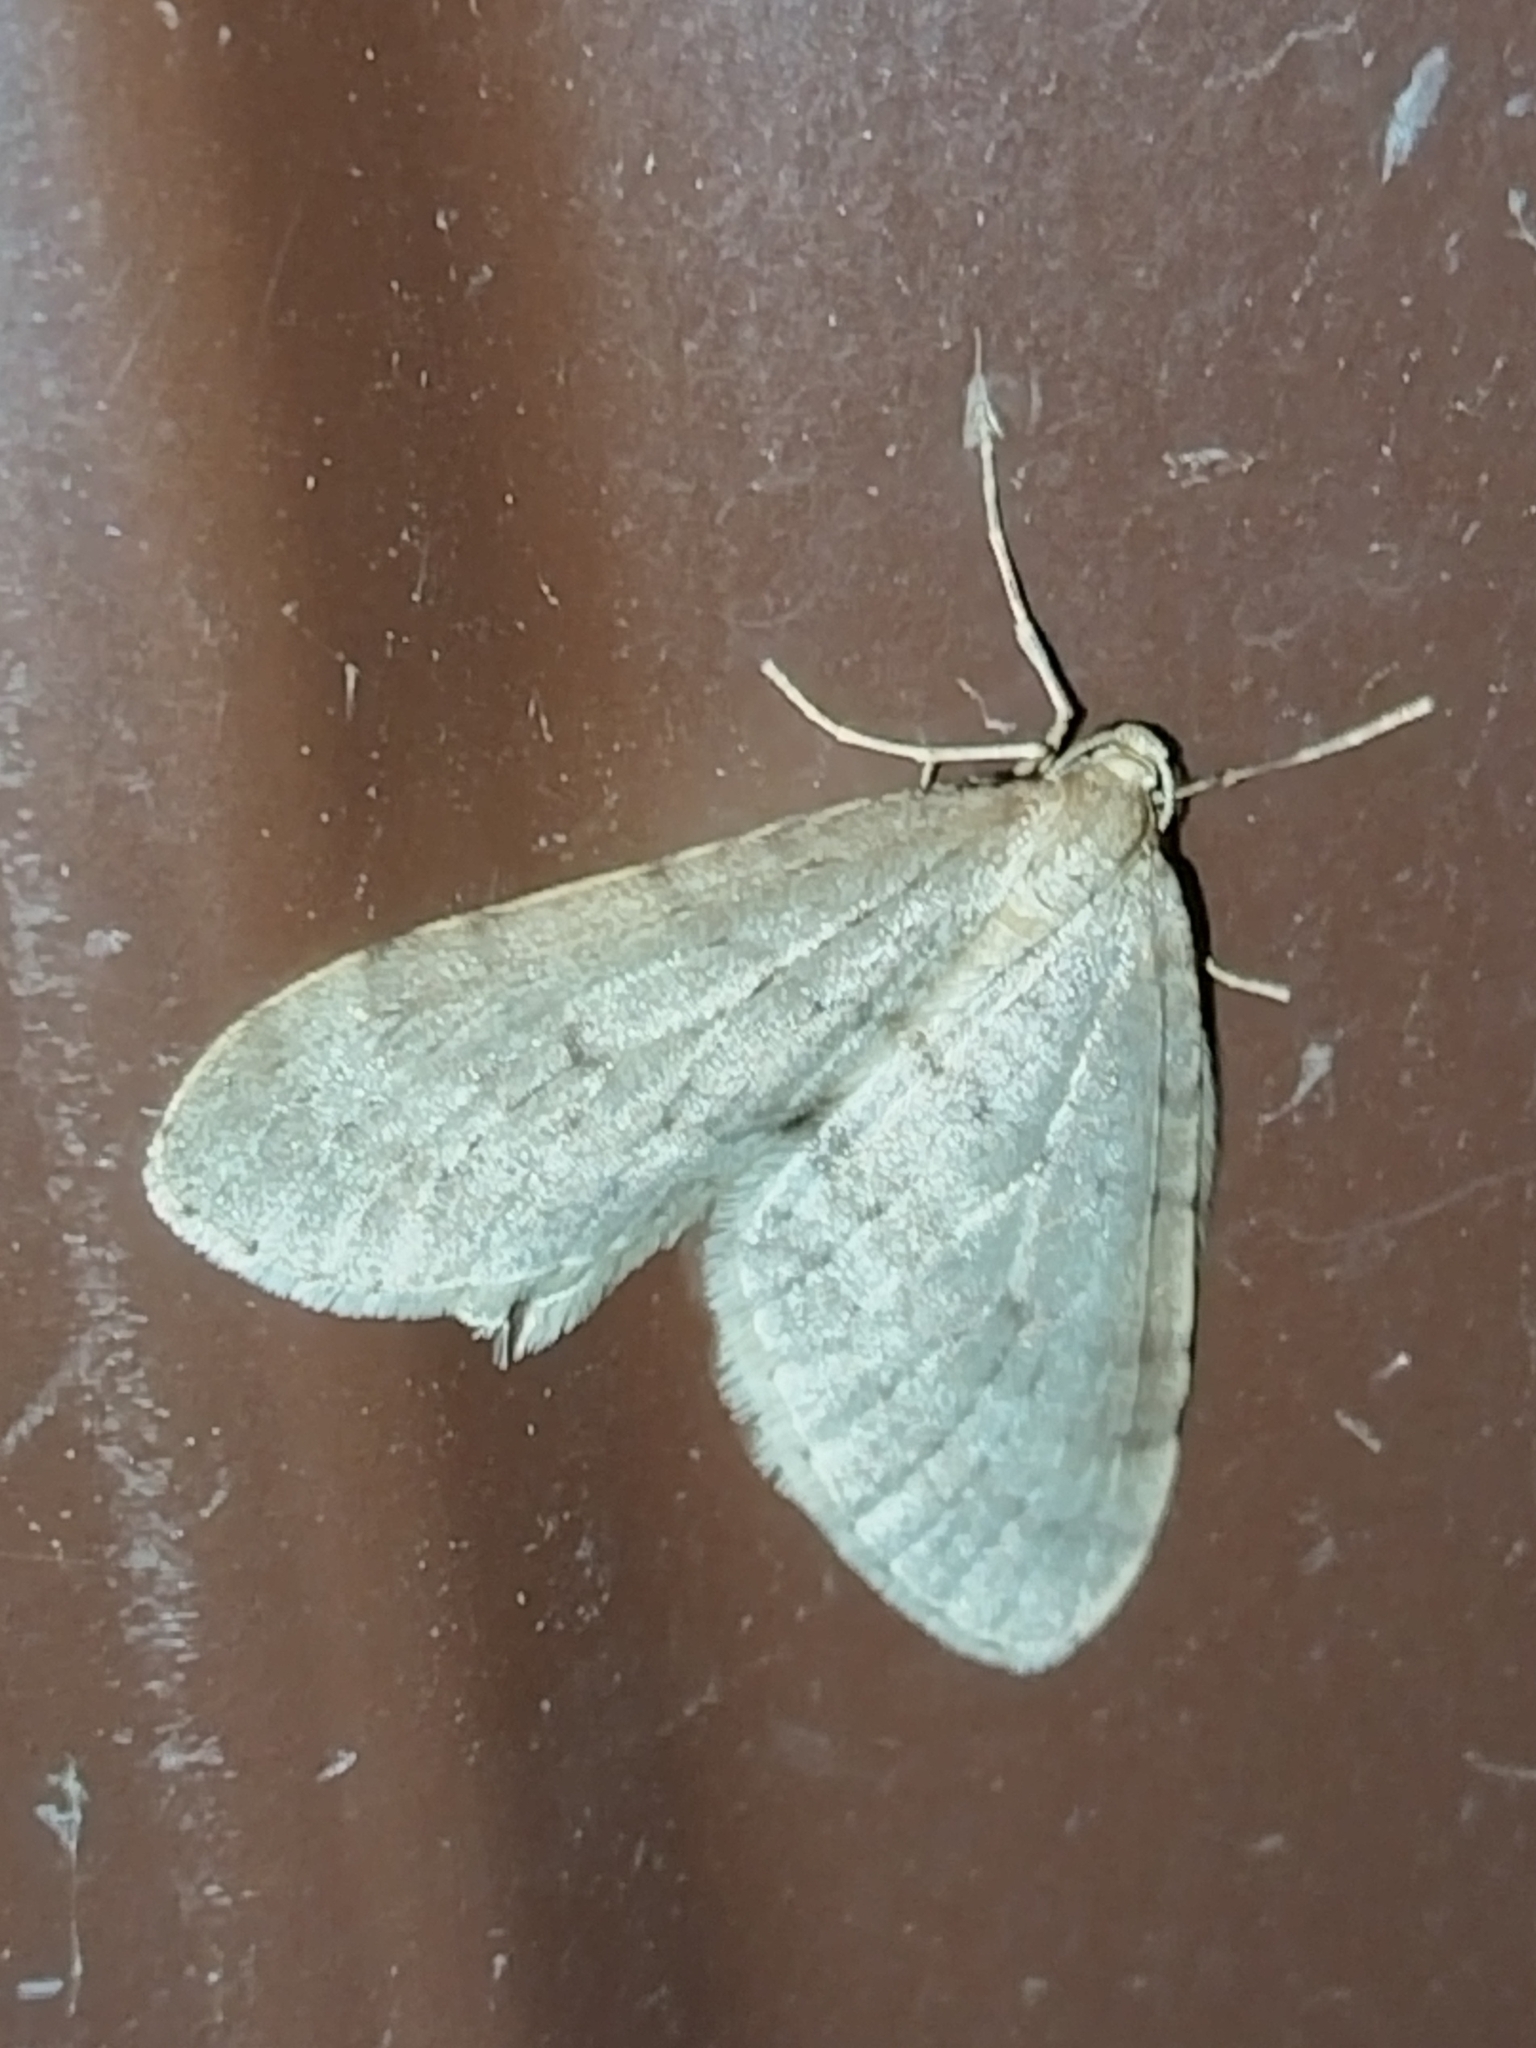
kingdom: Animalia
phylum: Arthropoda
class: Insecta
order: Lepidoptera
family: Geometridae
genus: Operophtera
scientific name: Operophtera fagata
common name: Northern winter moth
